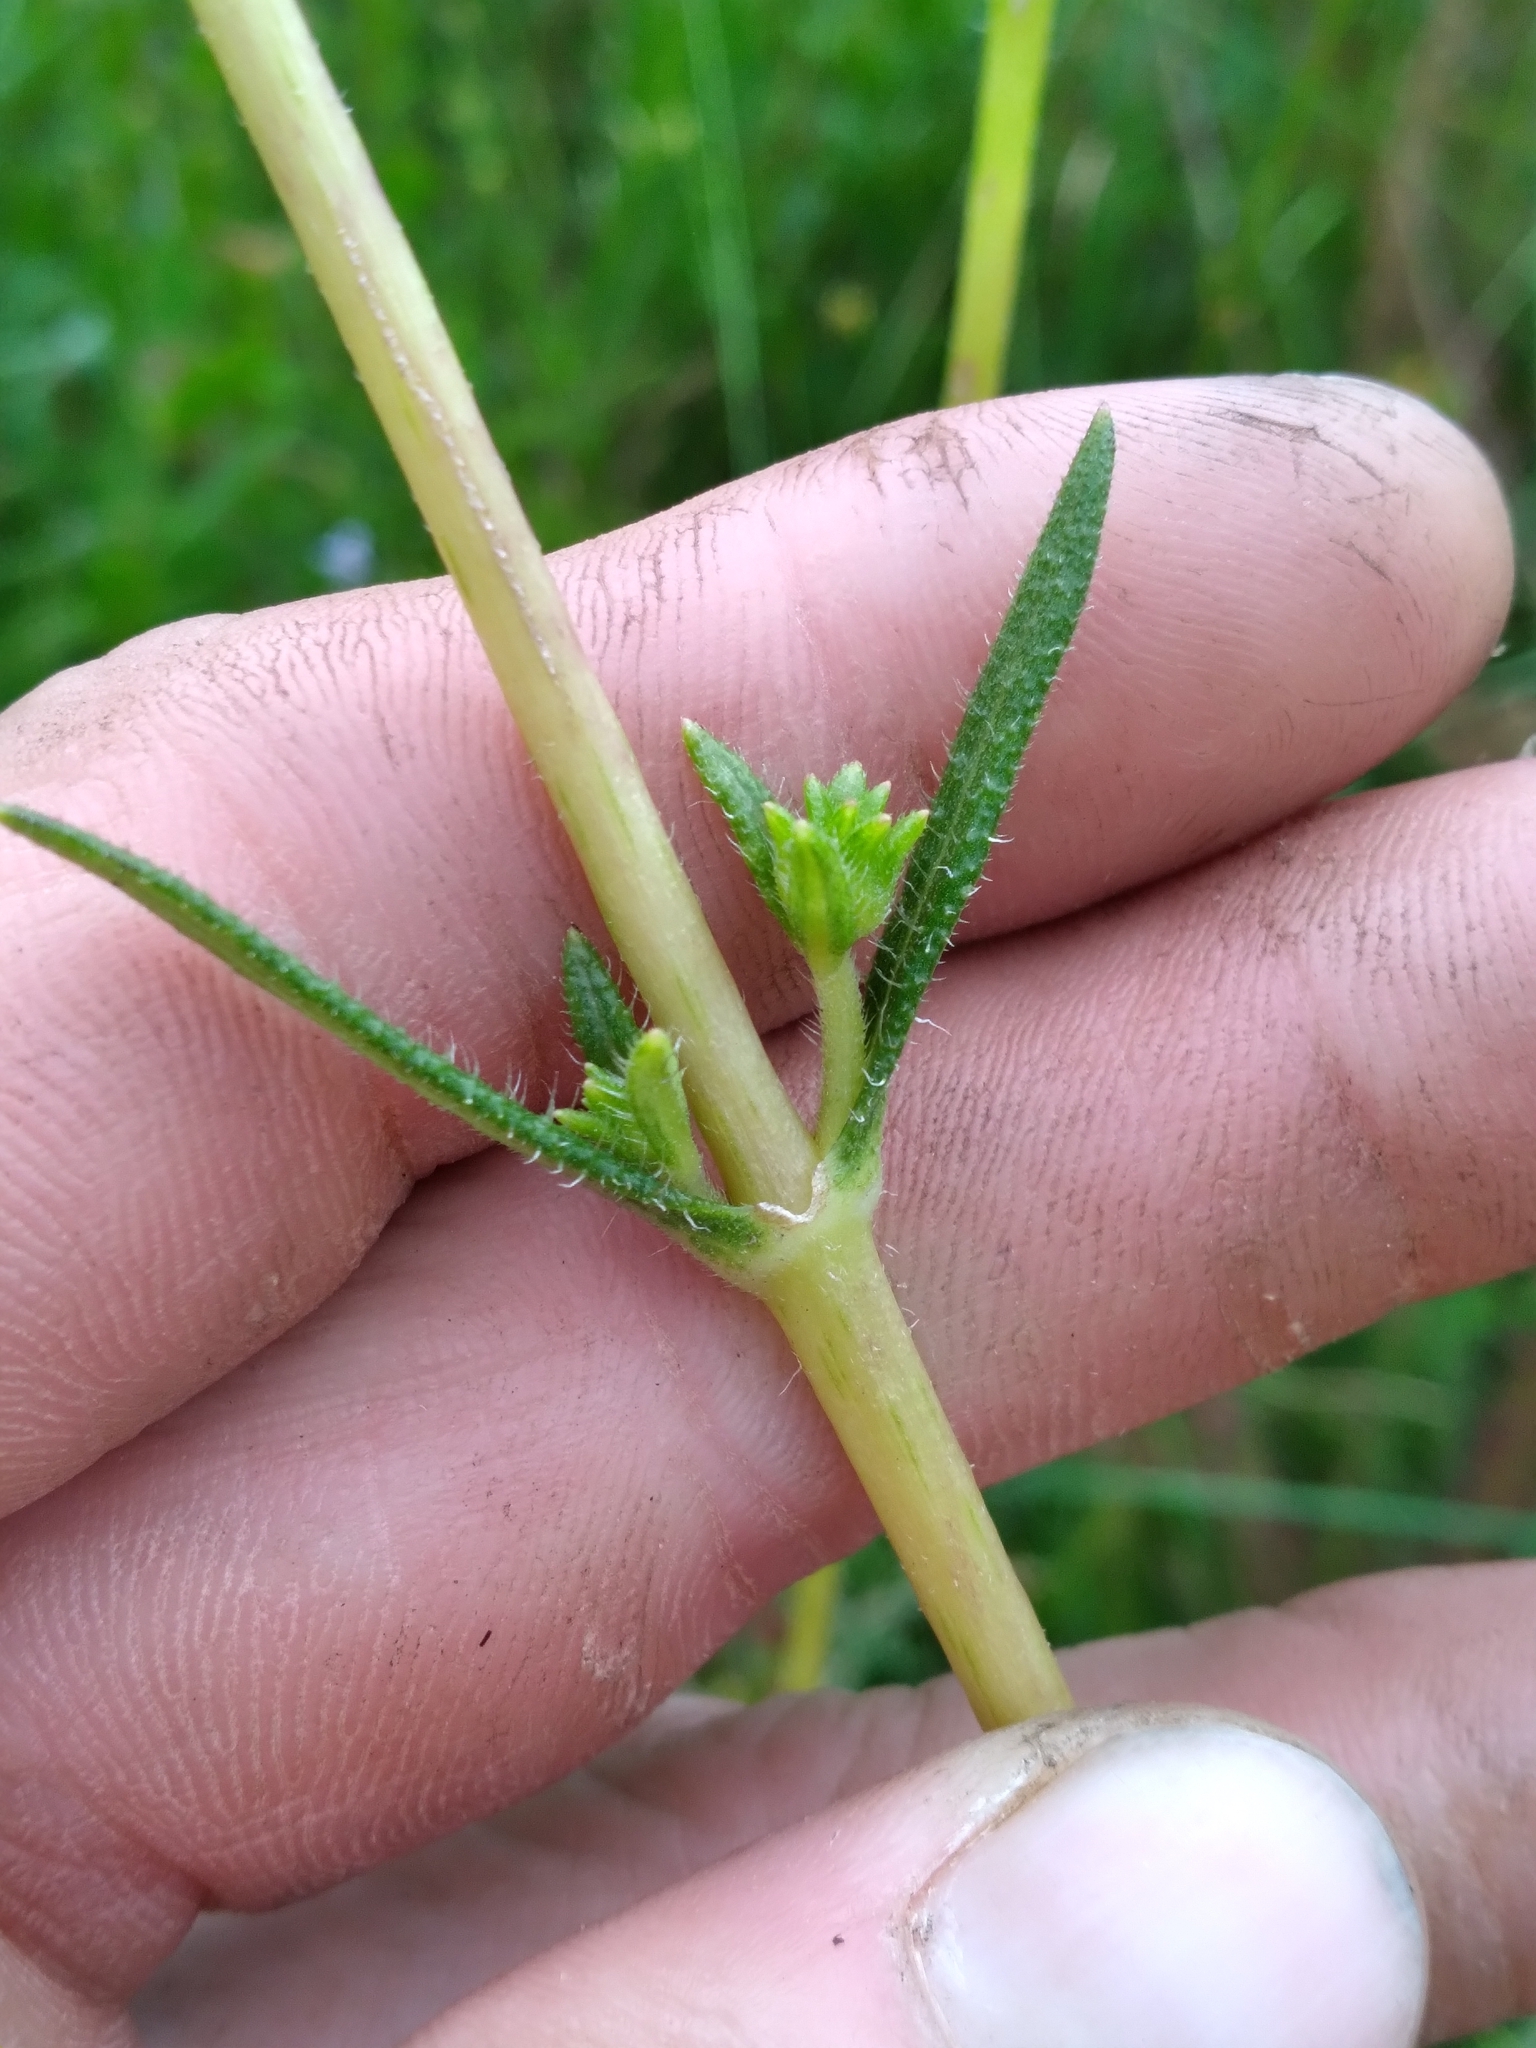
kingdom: Plantae
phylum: Tracheophyta
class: Magnoliopsida
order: Asterales
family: Asteraceae
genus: Helianthus
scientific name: Helianthus heterophyllus
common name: Wetland sunflower
